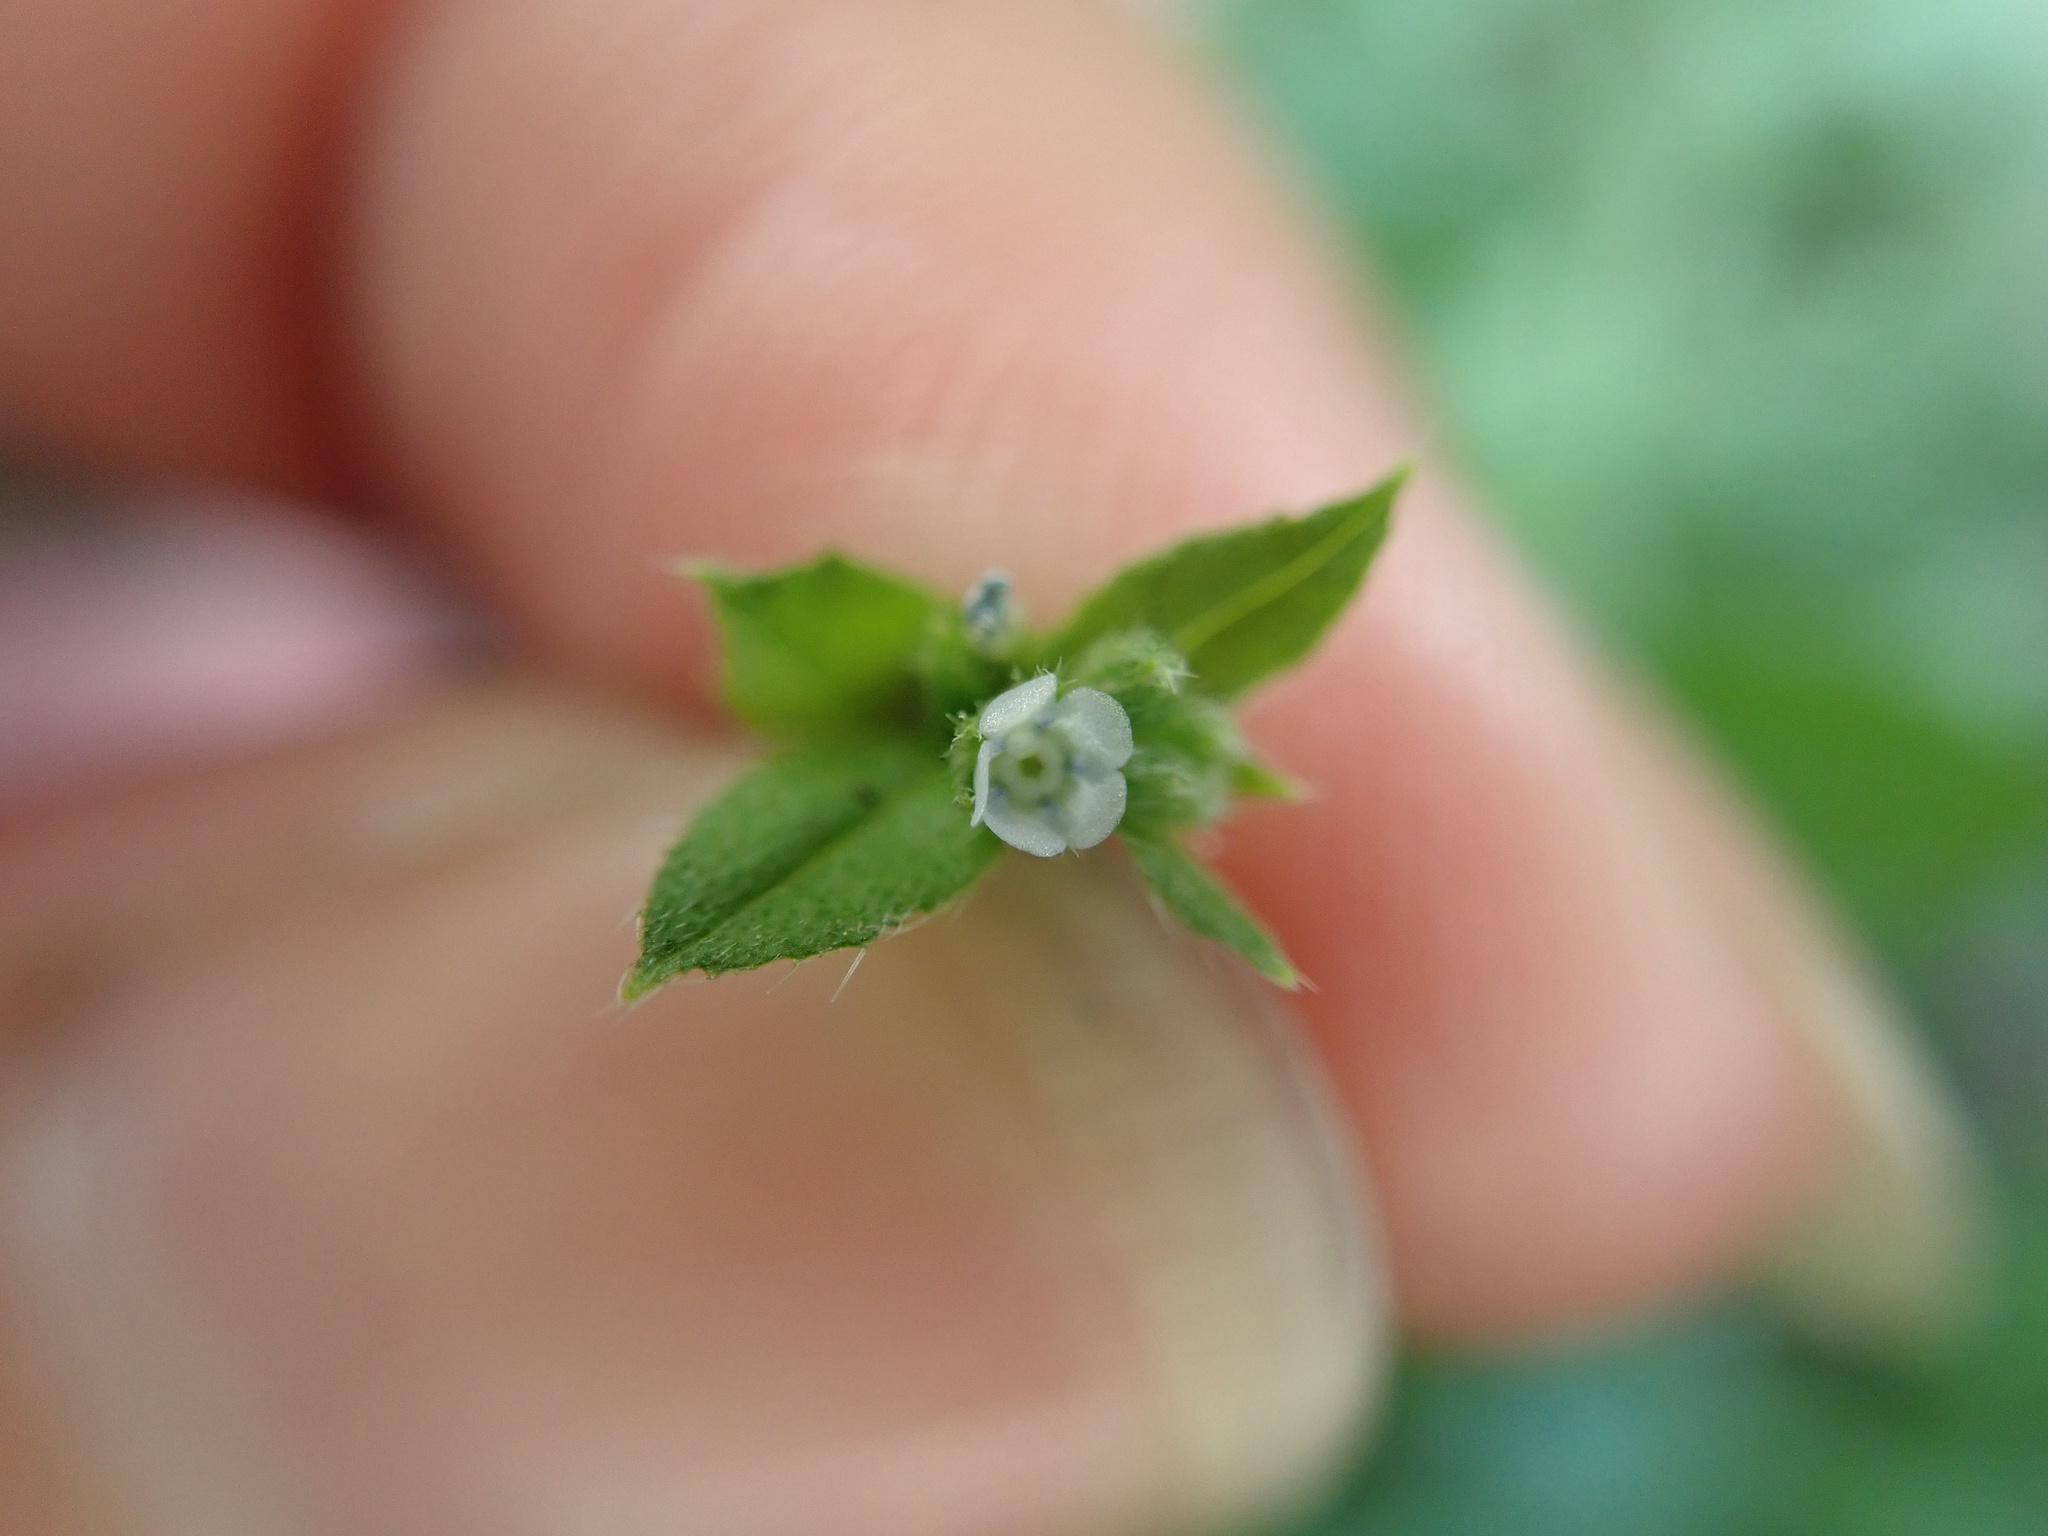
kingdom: Plantae
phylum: Tracheophyta
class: Magnoliopsida
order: Boraginales
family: Boraginaceae
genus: Bothriospermum
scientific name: Bothriospermum zeylanicum
